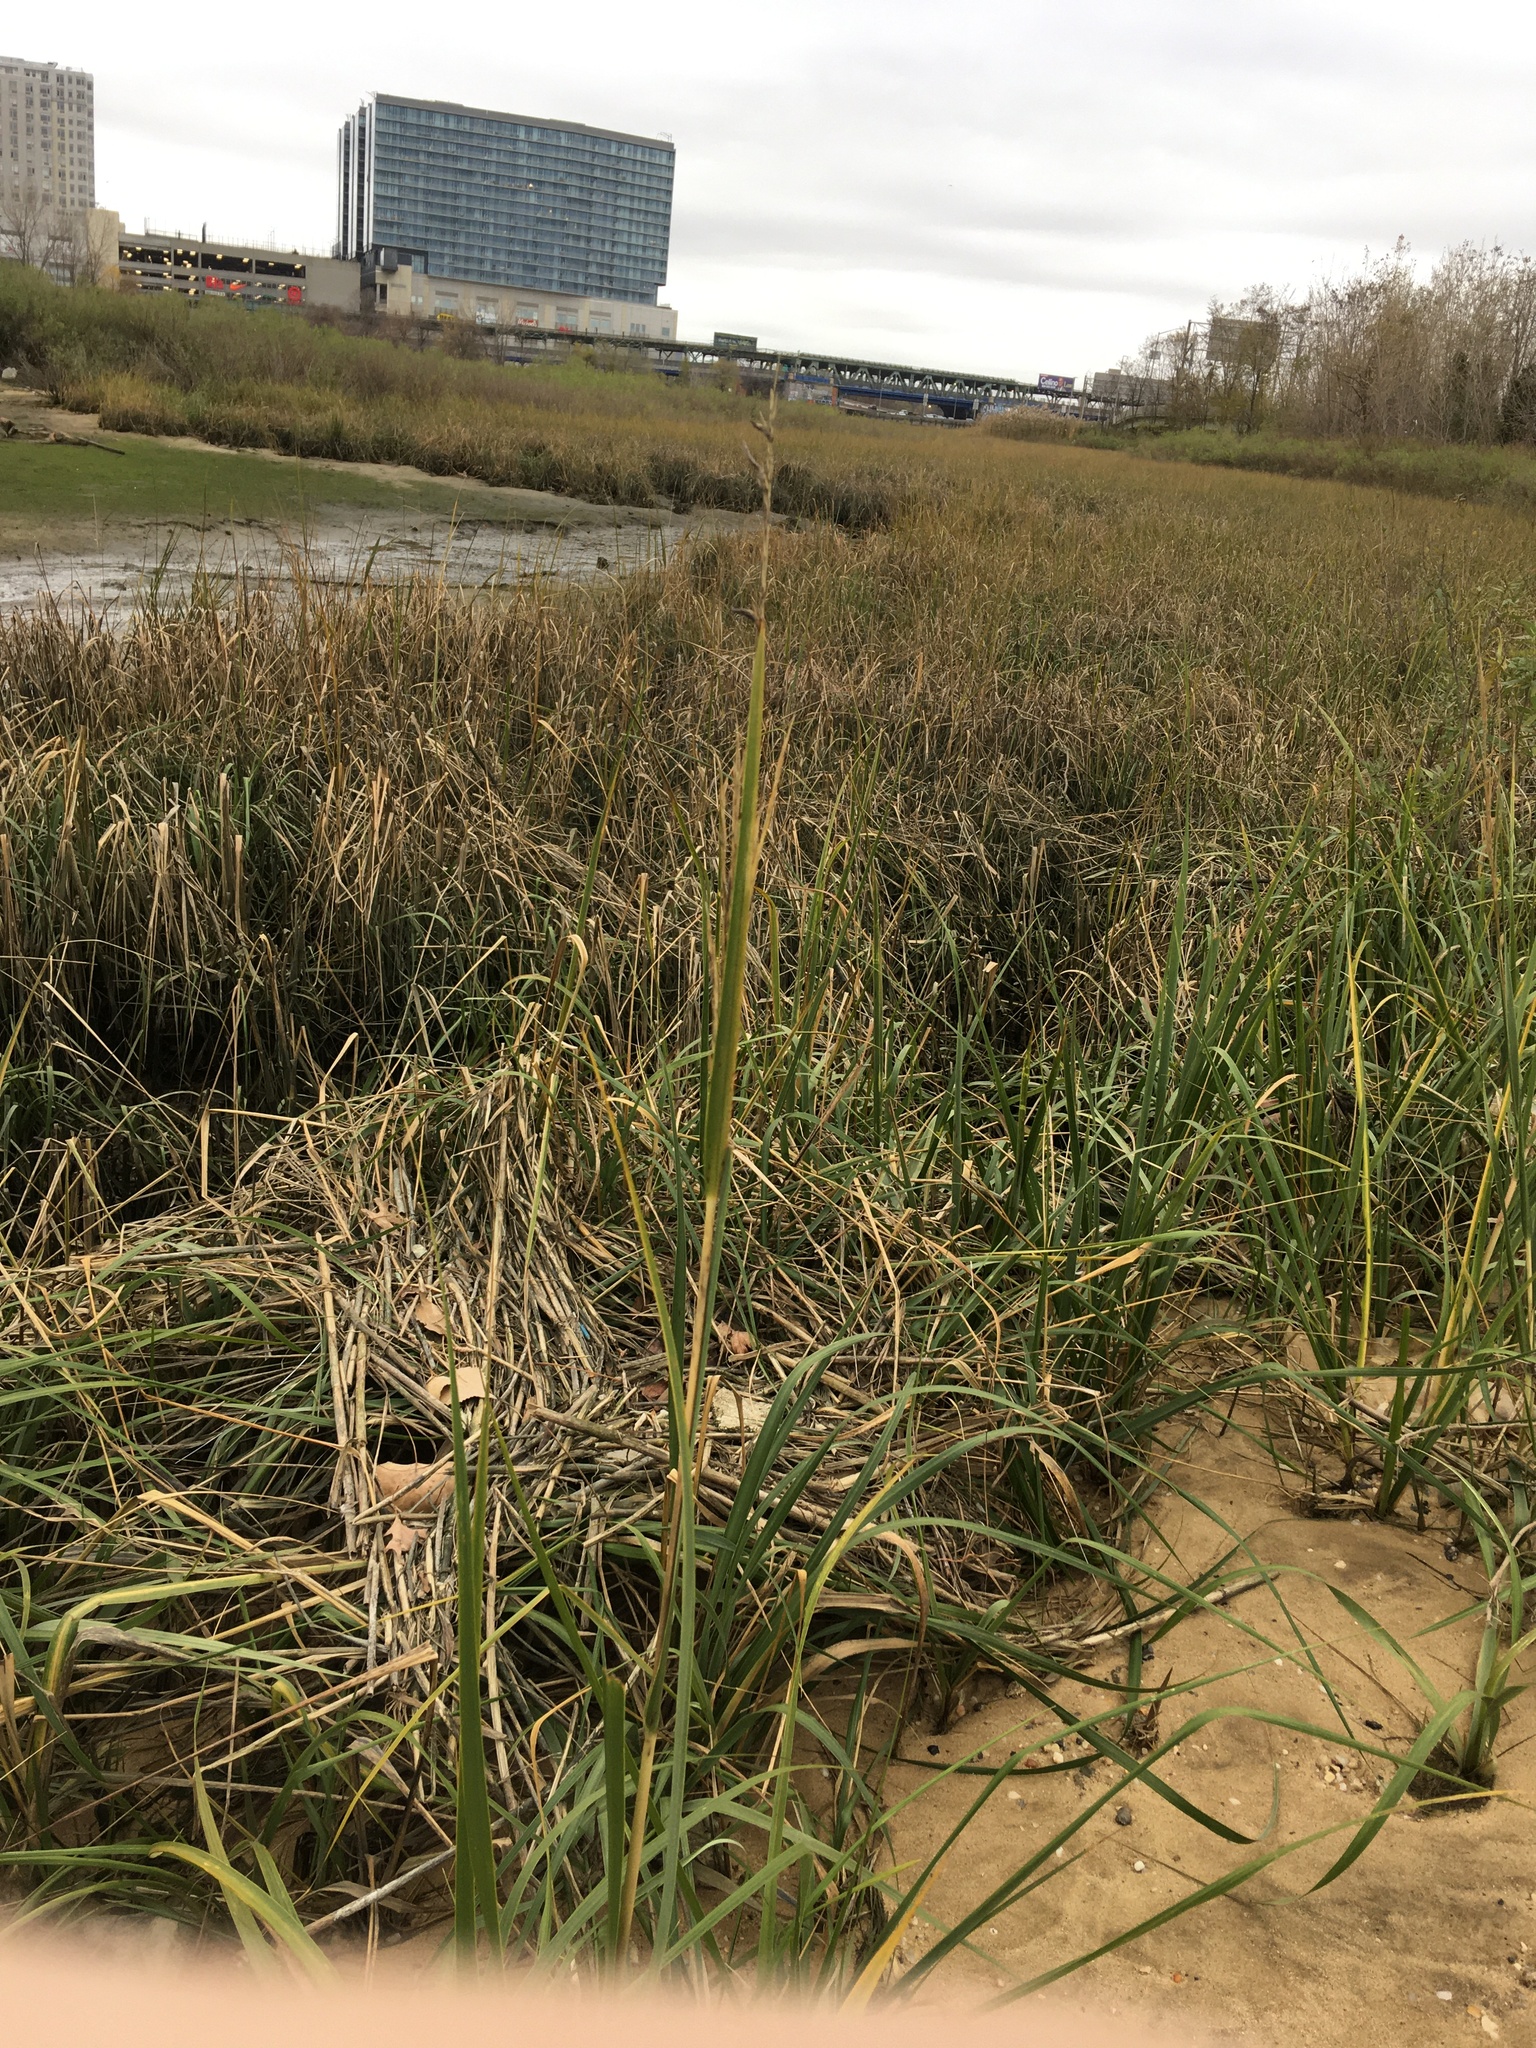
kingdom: Plantae
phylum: Tracheophyta
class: Liliopsida
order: Poales
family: Poaceae
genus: Sporobolus
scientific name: Sporobolus alterniflorus
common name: Atlantic cordgrass
